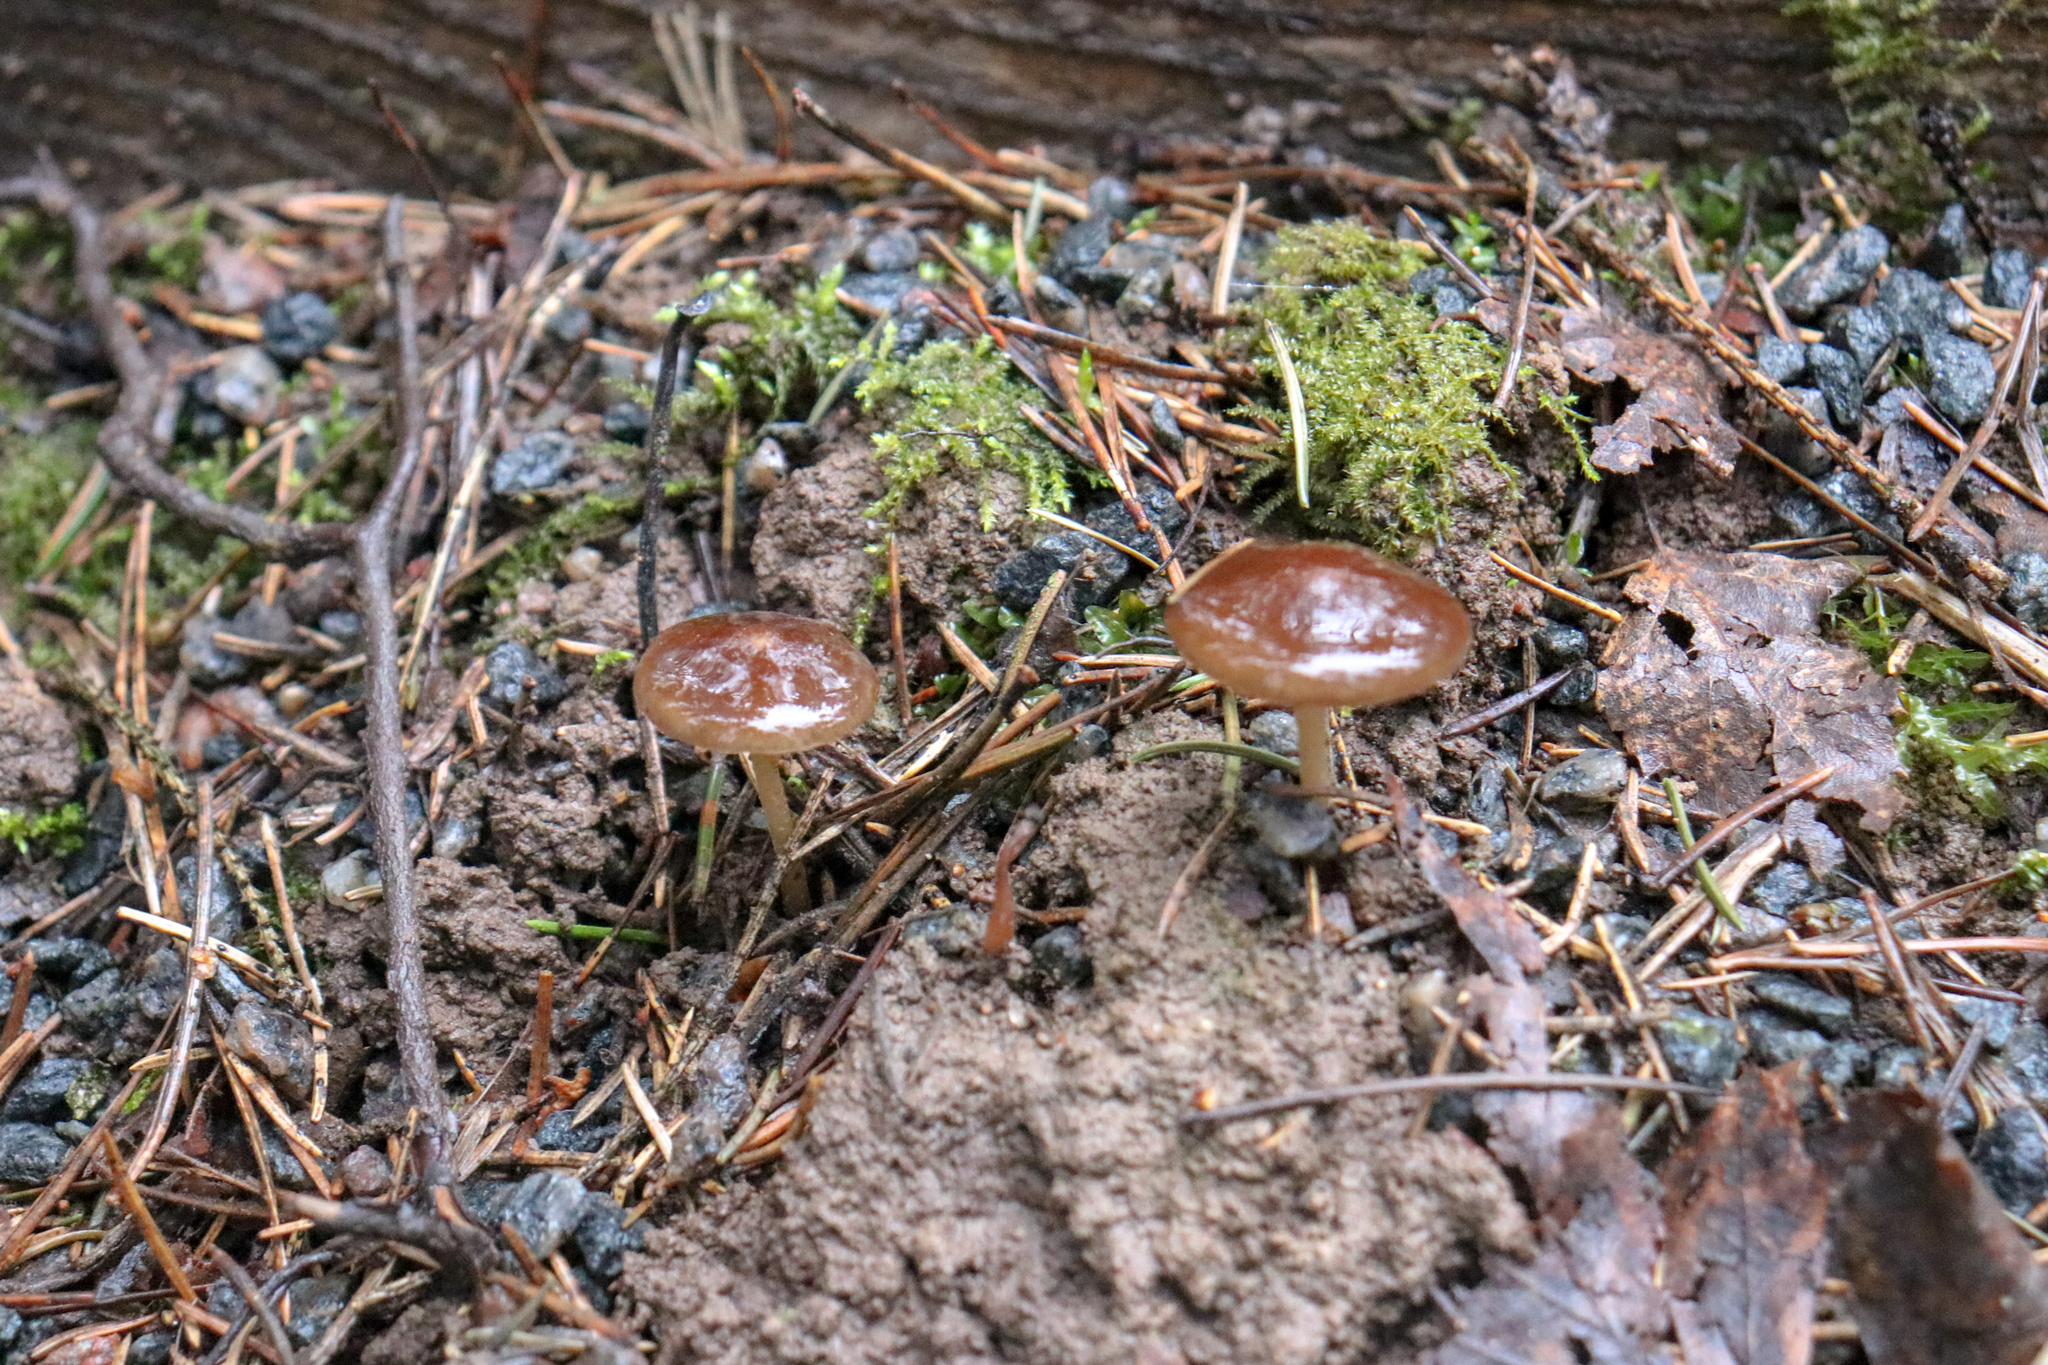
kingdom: Fungi
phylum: Basidiomycota
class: Agaricomycetes
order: Agaricales
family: Physalacriaceae
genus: Strobilurus
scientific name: Strobilurus
